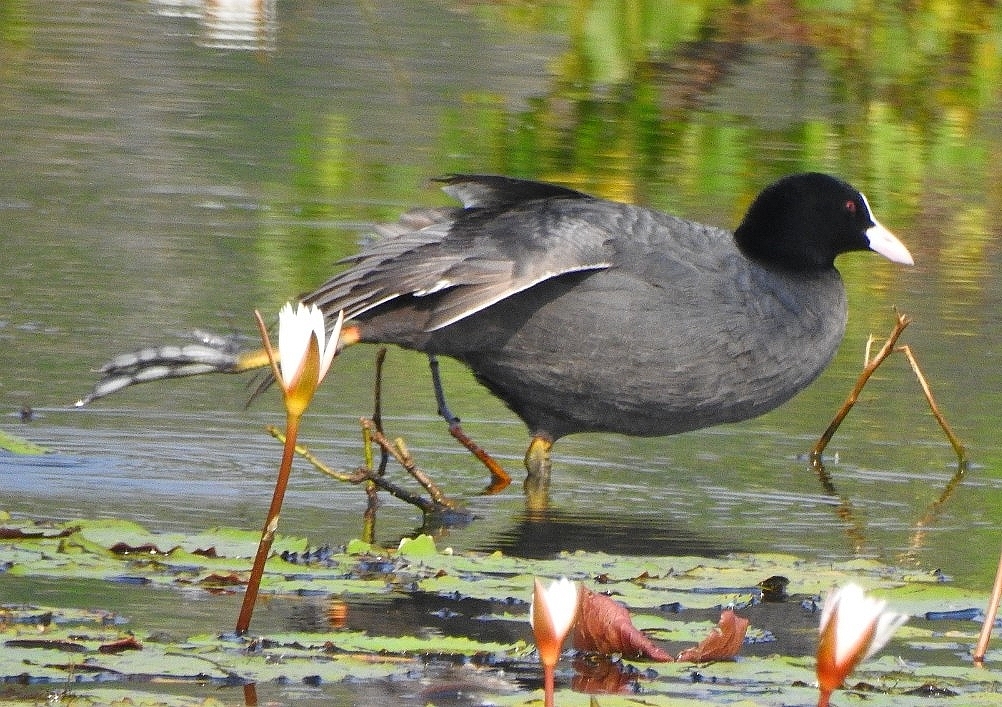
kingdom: Animalia
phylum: Chordata
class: Aves
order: Gruiformes
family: Rallidae
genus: Fulica
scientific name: Fulica atra
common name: Eurasian coot
